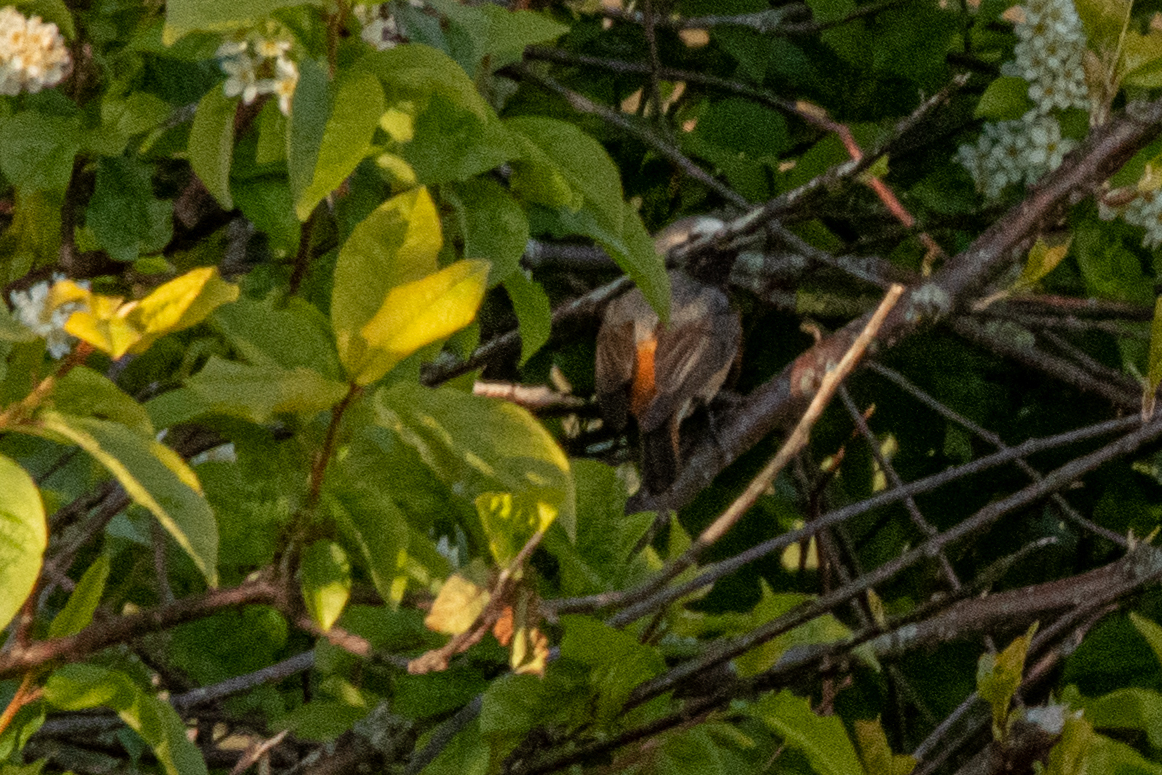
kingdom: Animalia
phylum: Chordata
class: Aves
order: Passeriformes
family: Muscicapidae
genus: Phoenicurus
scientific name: Phoenicurus phoenicurus
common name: Common redstart
